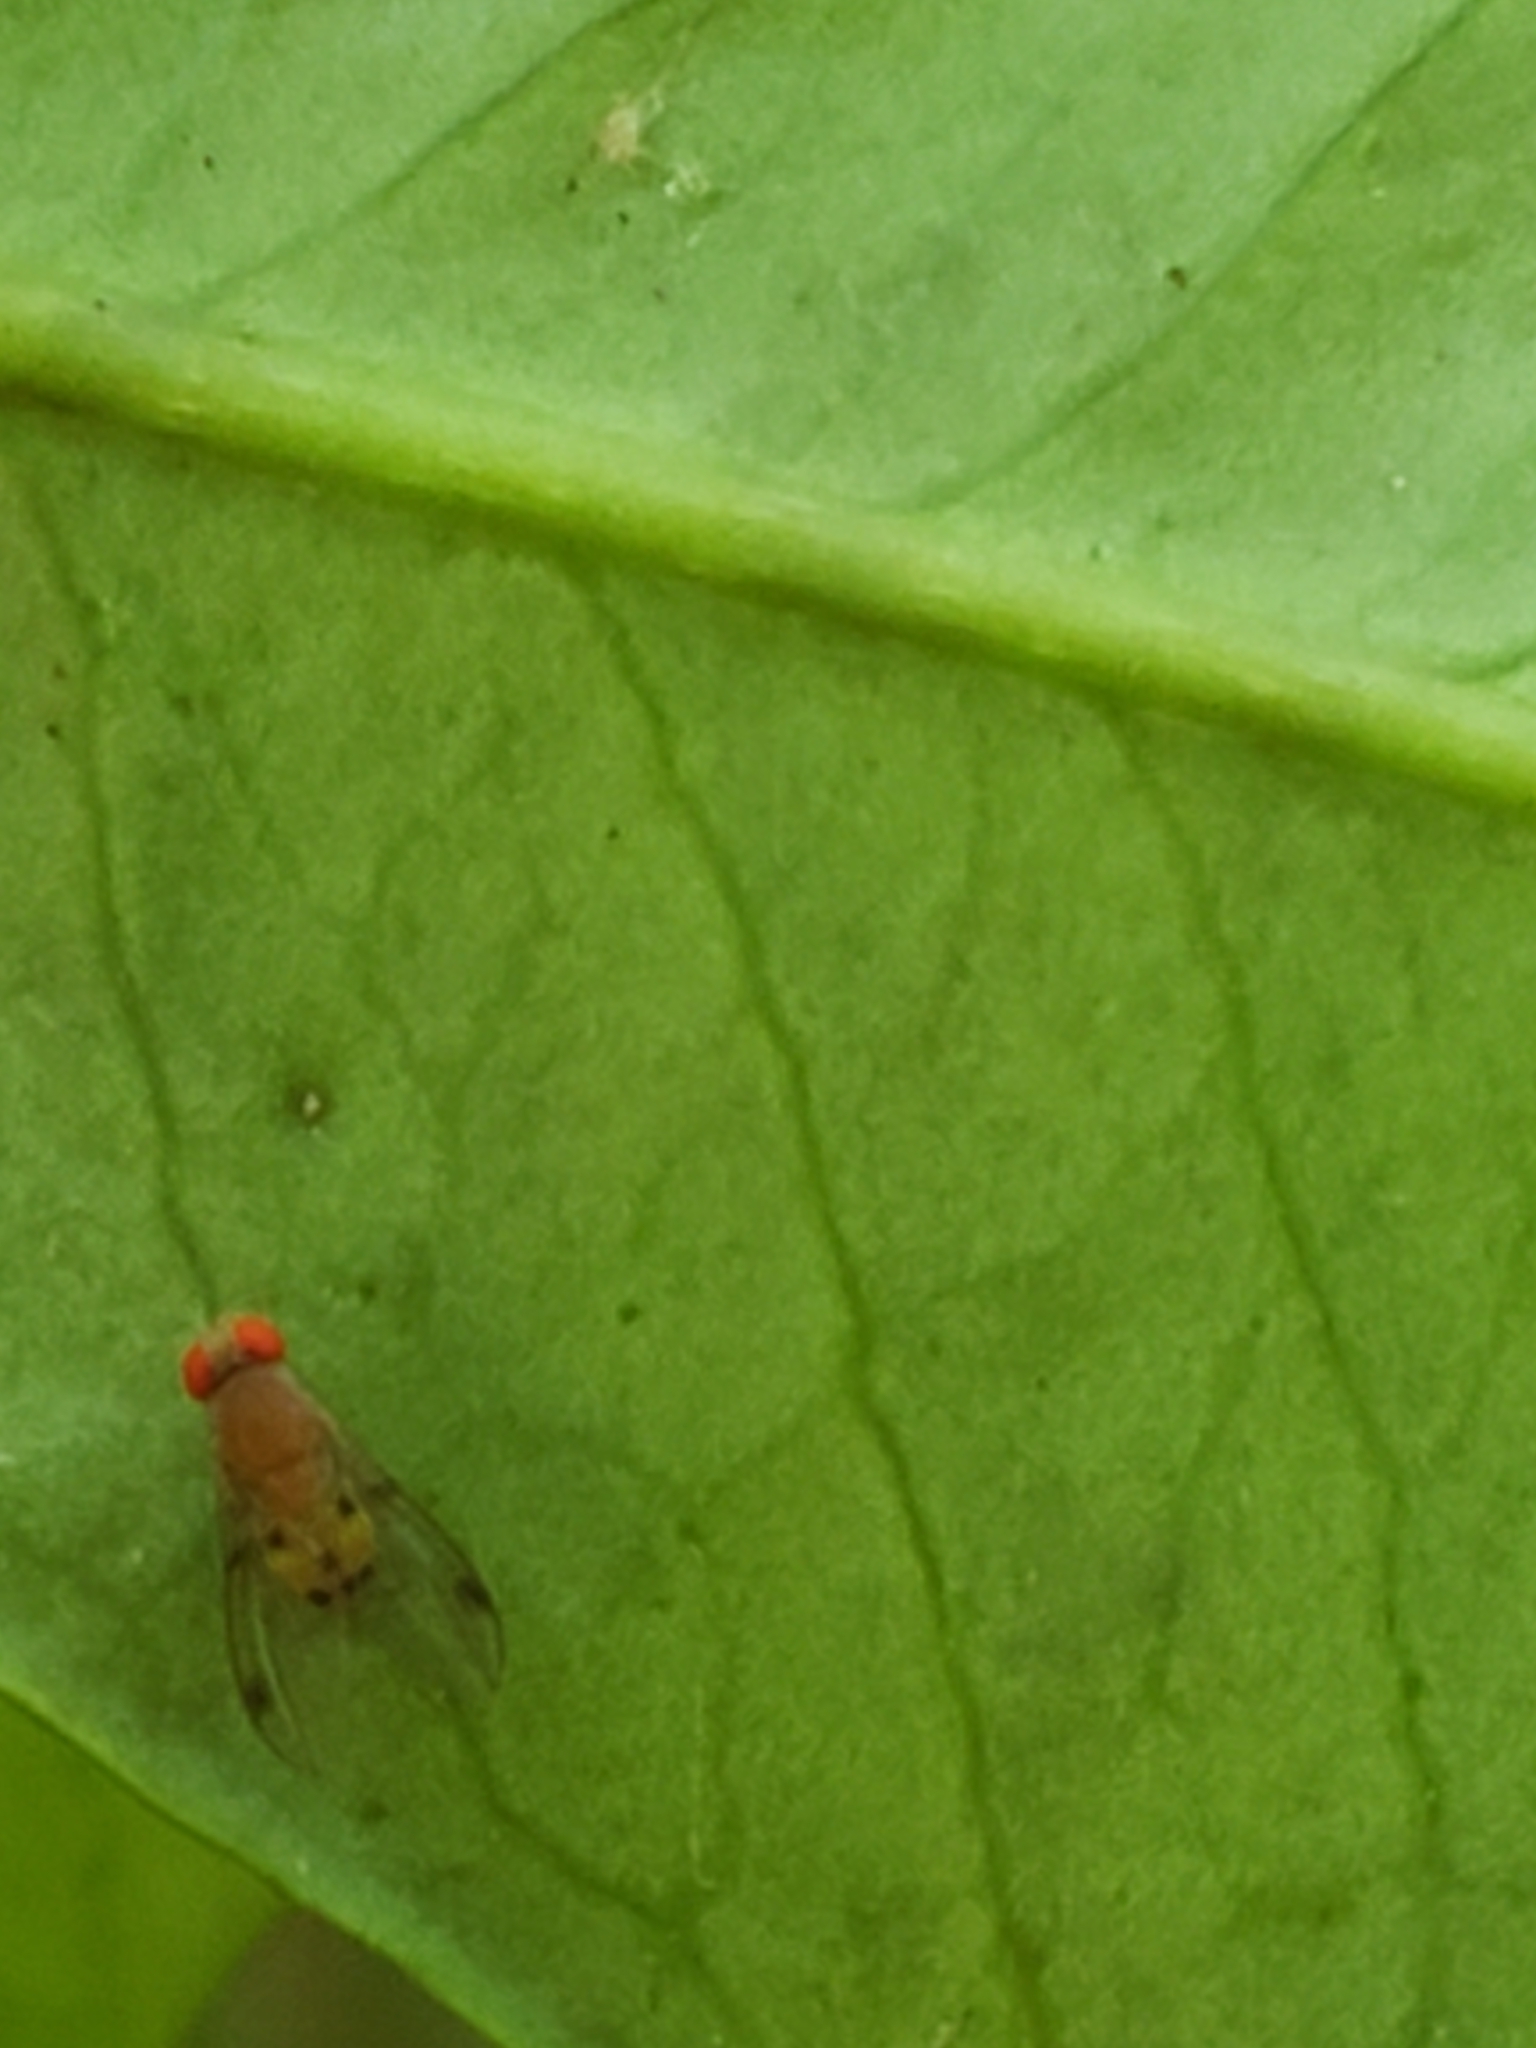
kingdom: Animalia
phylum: Arthropoda
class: Insecta
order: Diptera
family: Drosophilidae
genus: Leucophenga
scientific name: Leucophenga varia
